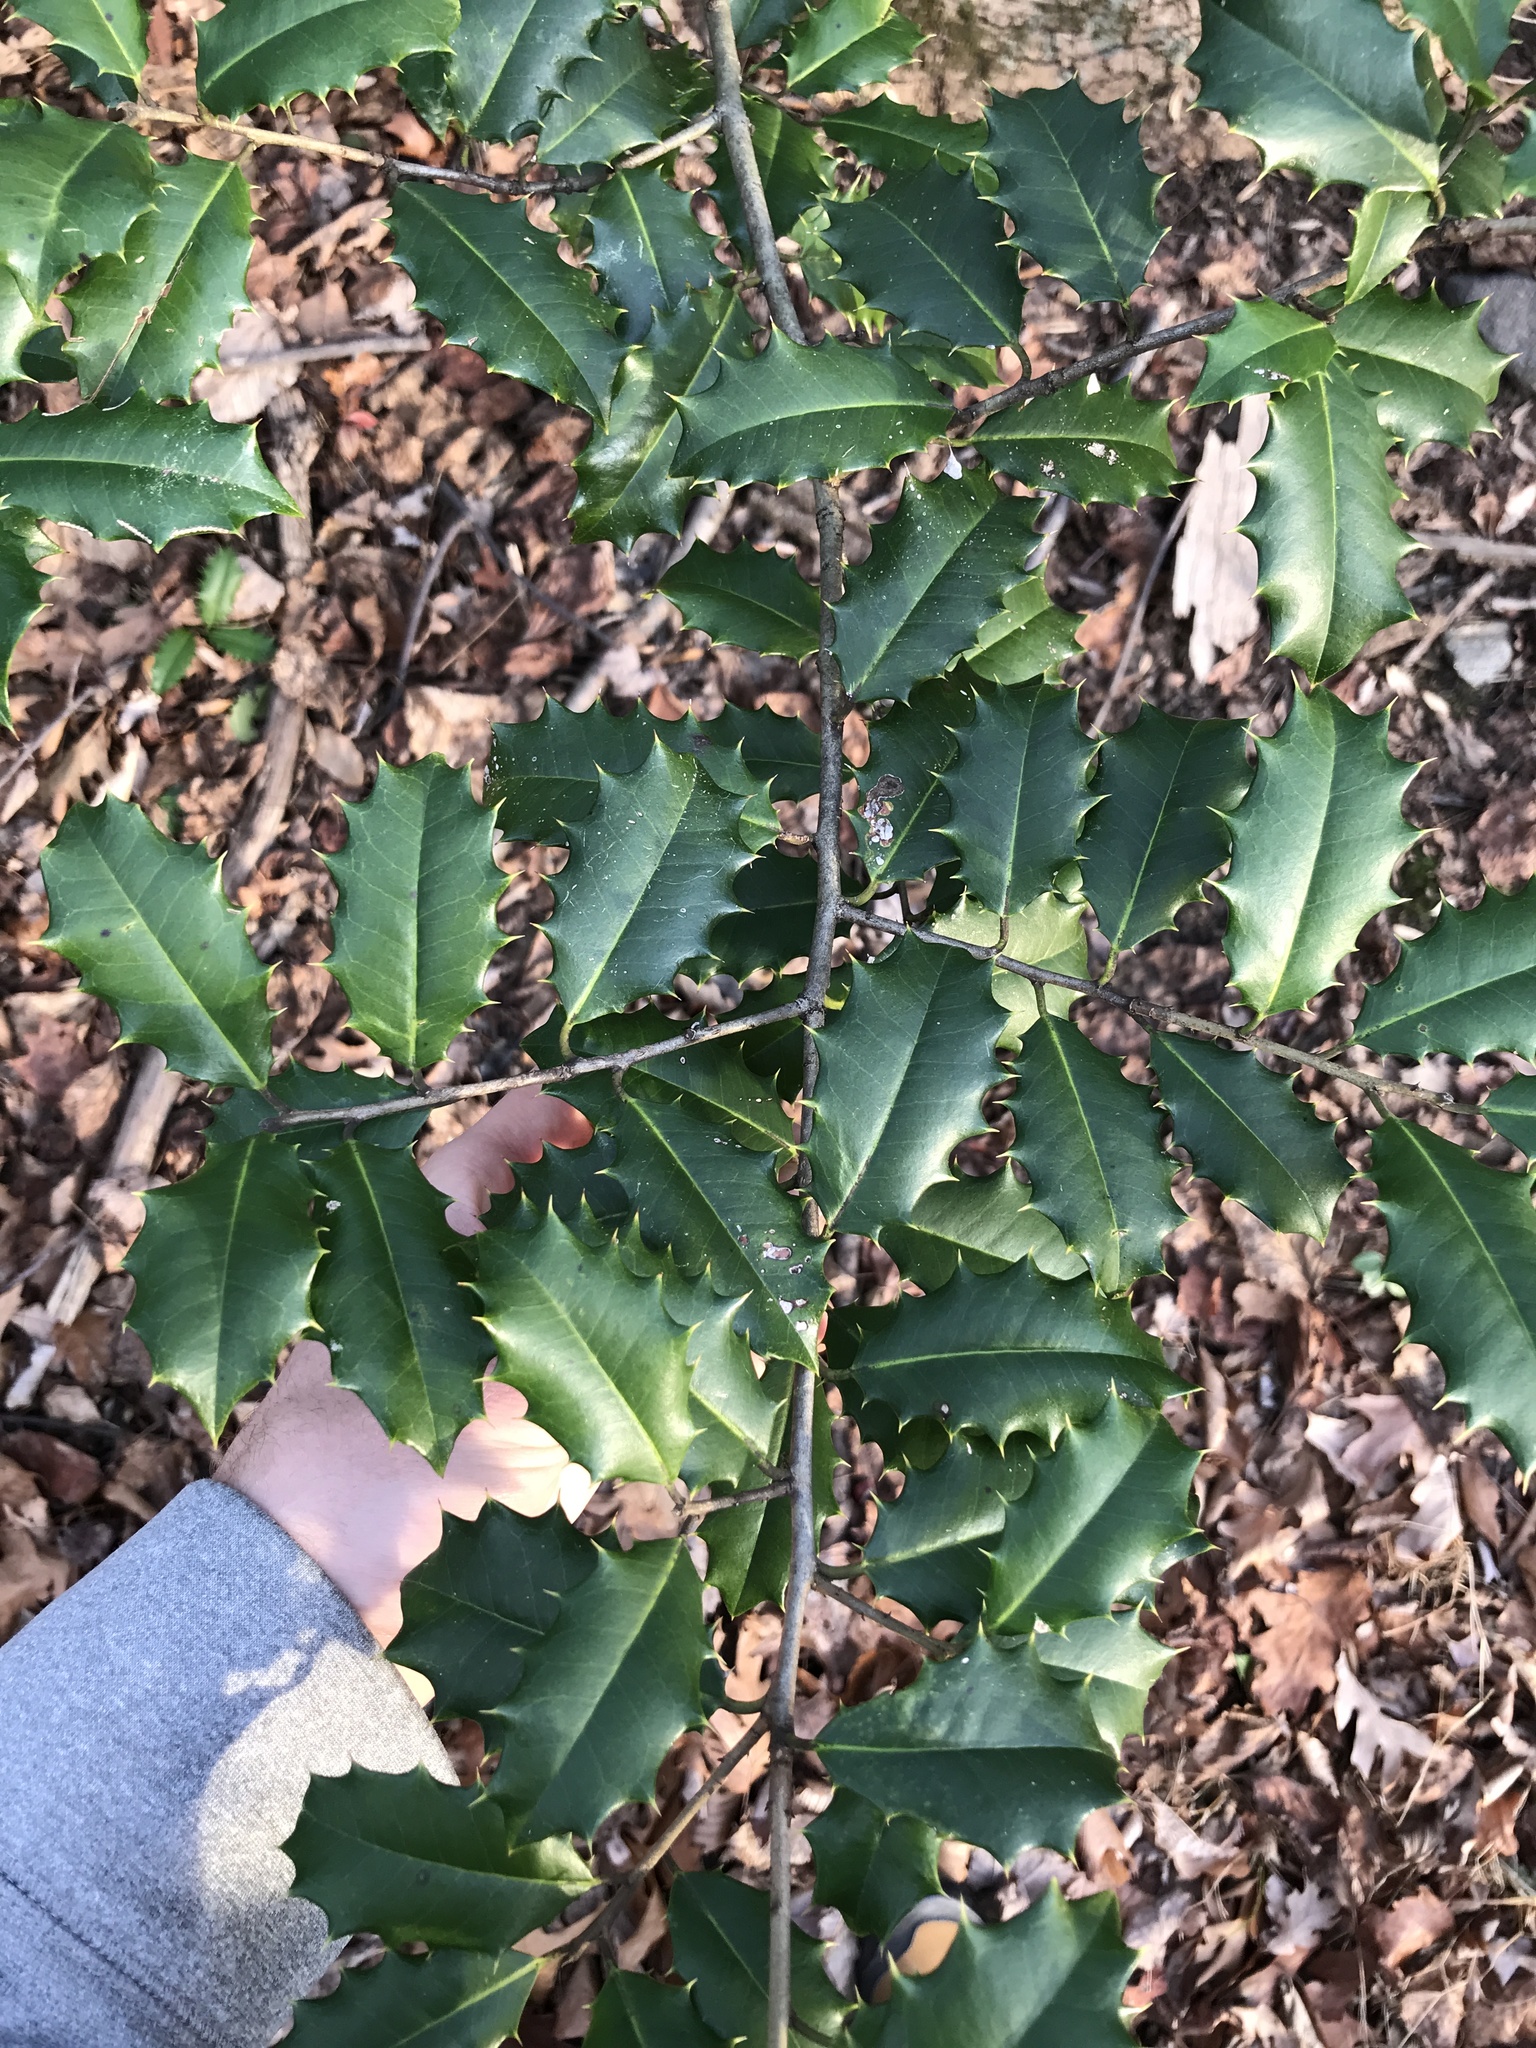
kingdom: Plantae
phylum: Tracheophyta
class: Magnoliopsida
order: Aquifoliales
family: Aquifoliaceae
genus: Ilex
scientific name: Ilex opaca
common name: American holly
